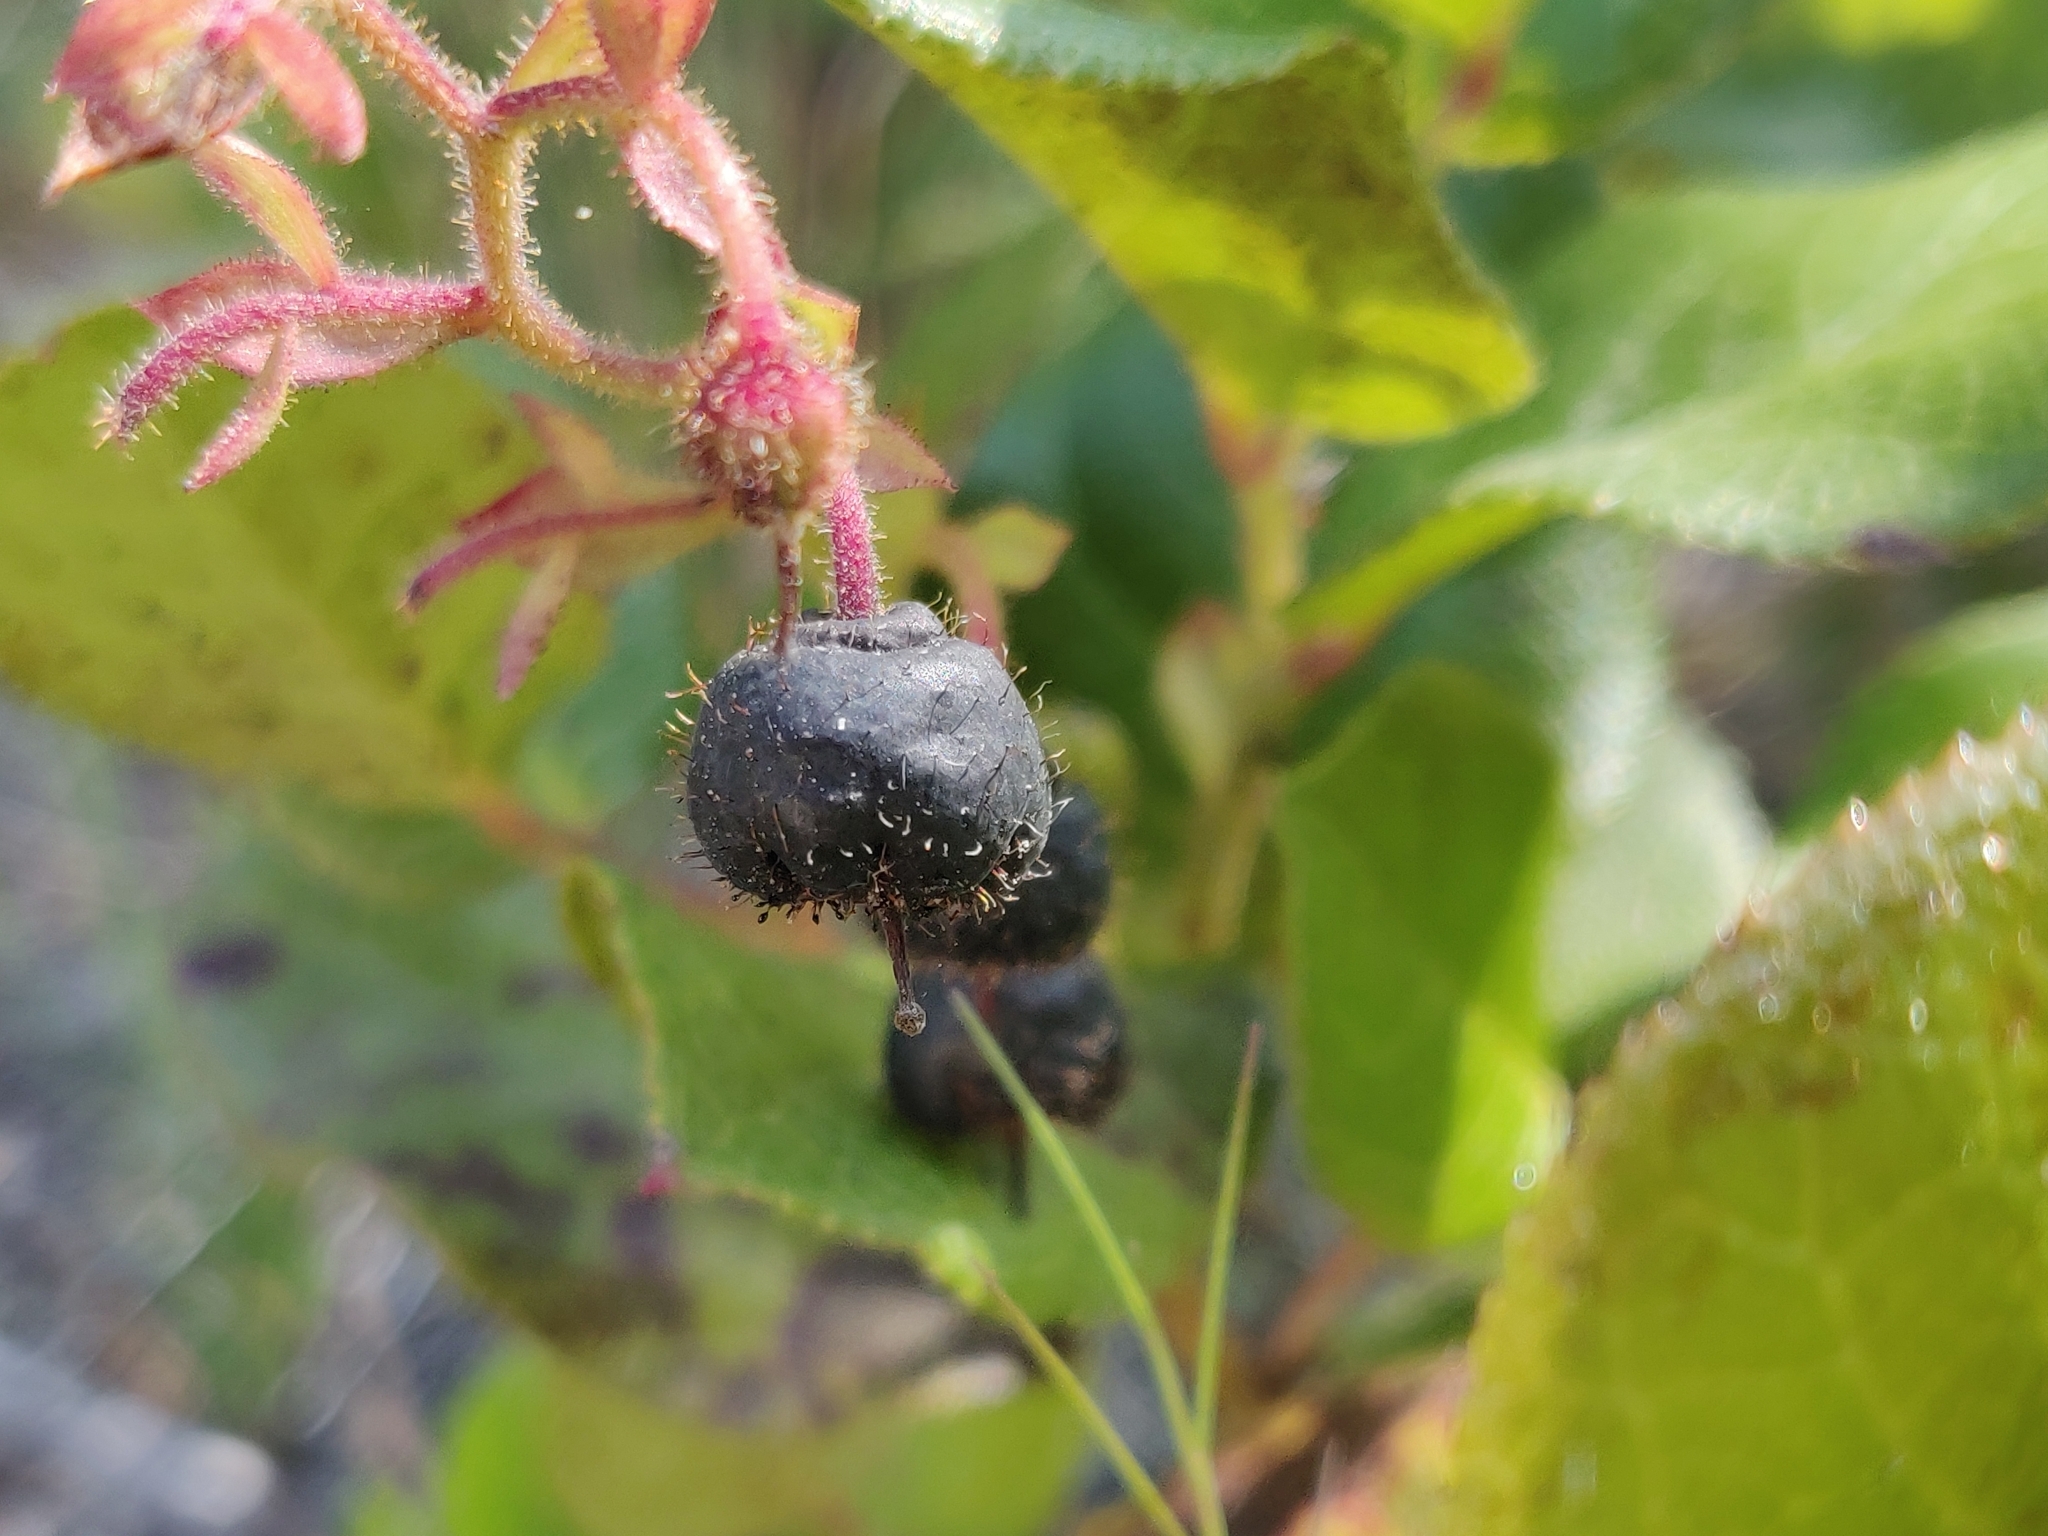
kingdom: Plantae
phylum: Tracheophyta
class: Magnoliopsida
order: Ericales
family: Ericaceae
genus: Gaultheria
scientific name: Gaultheria shallon
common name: Shallon
